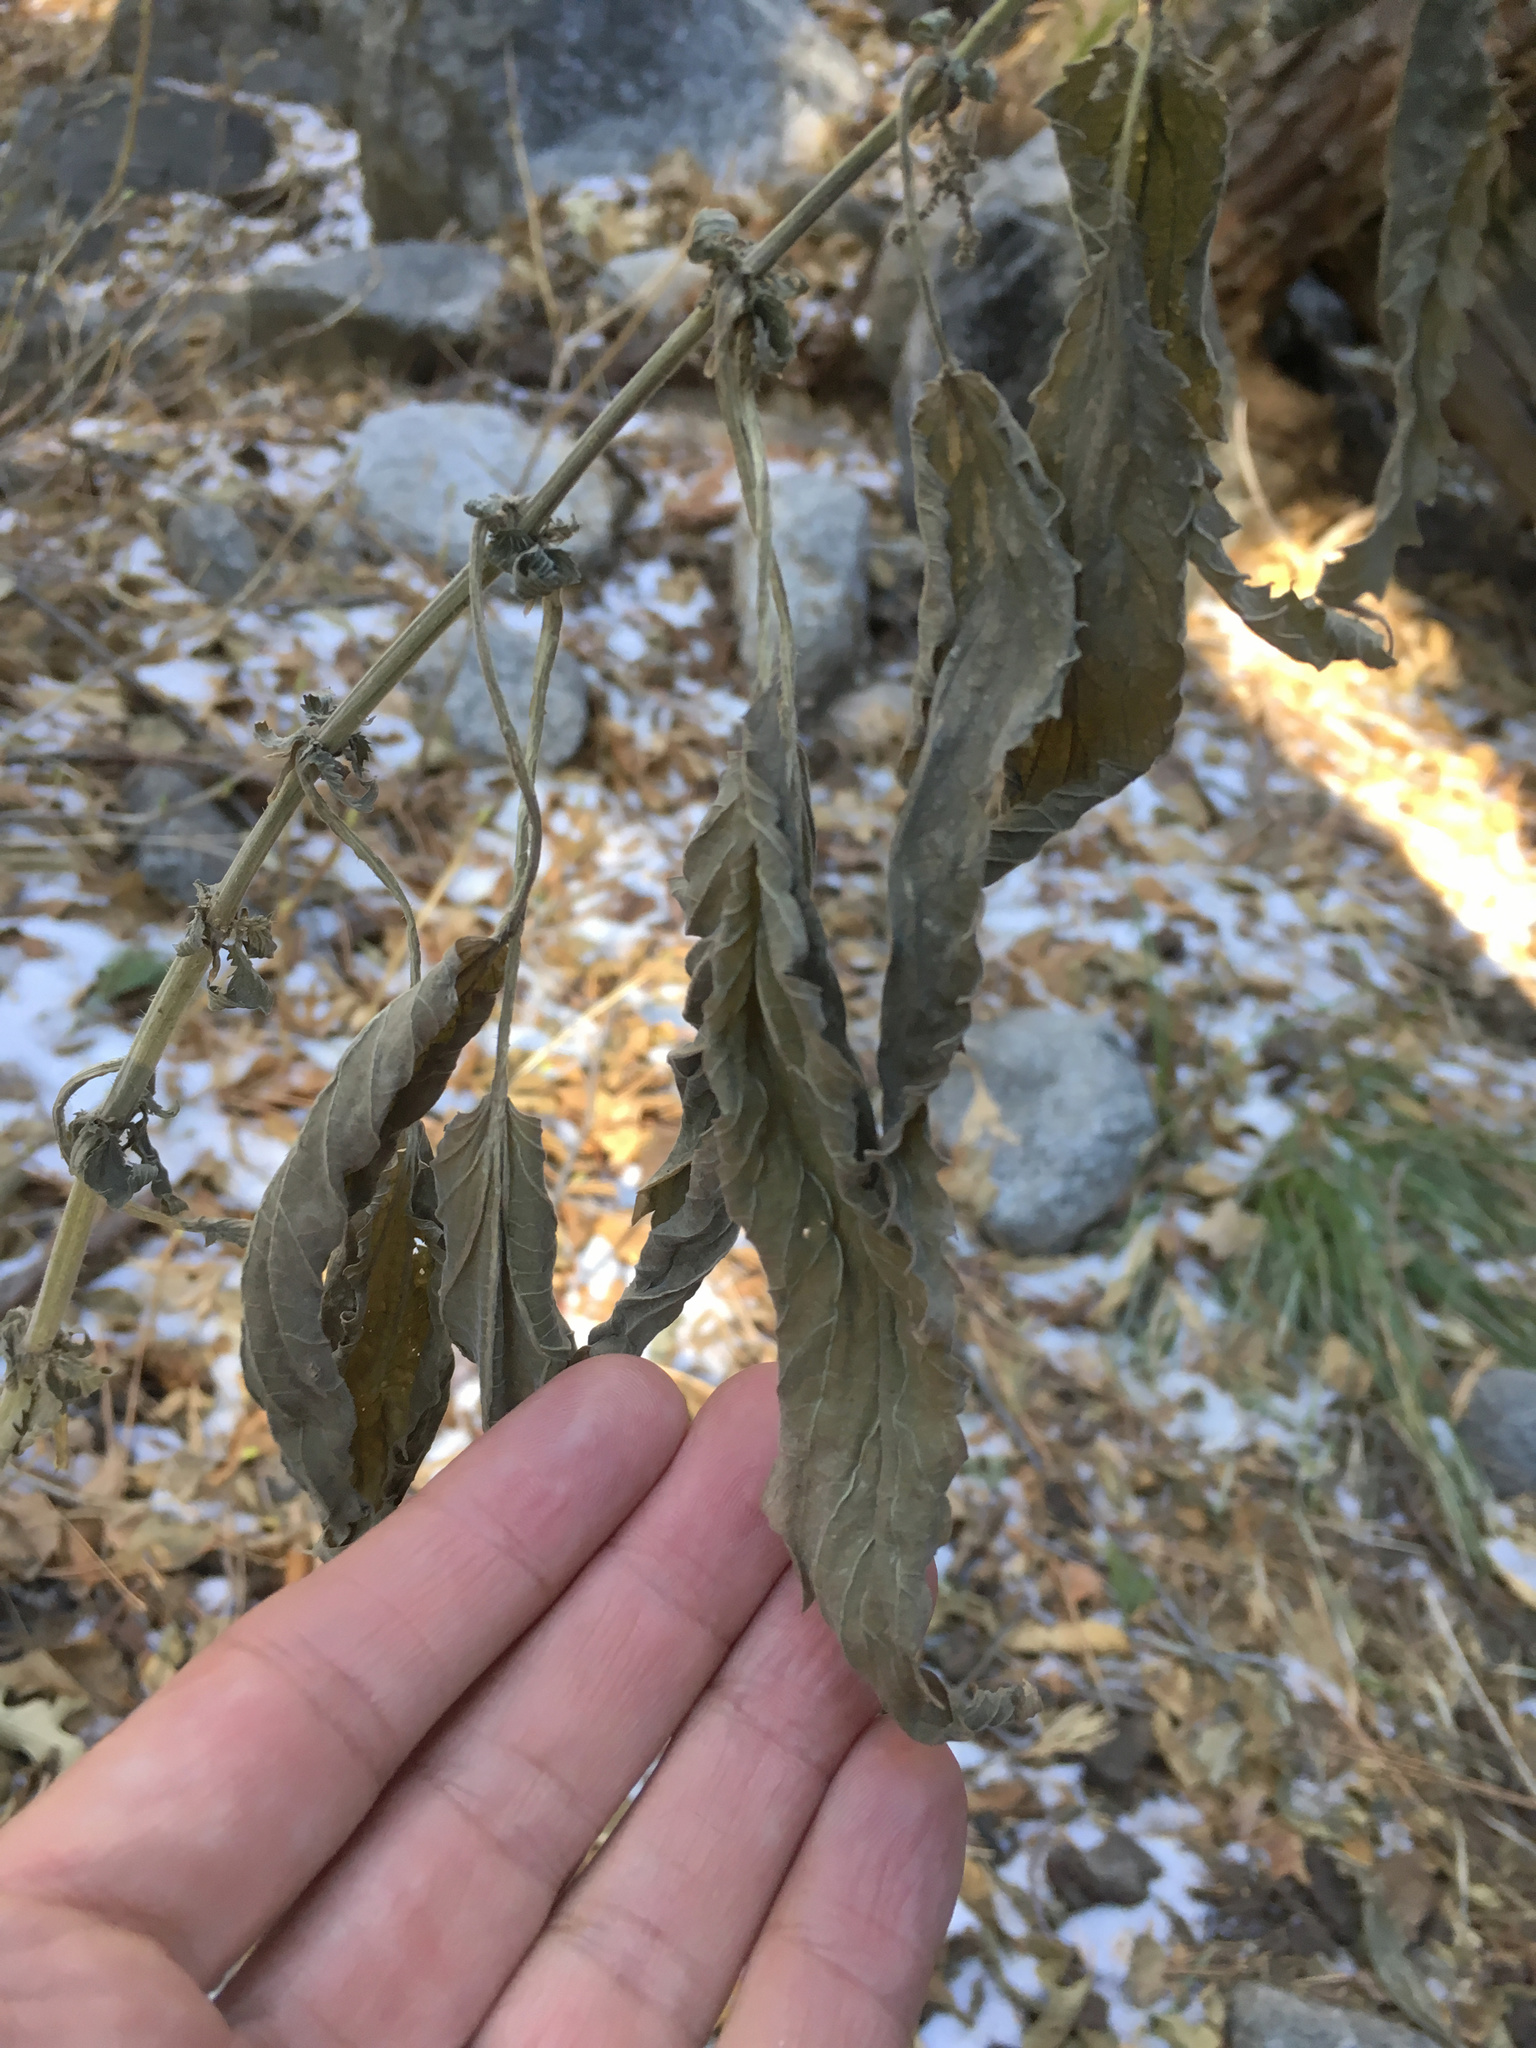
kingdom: Plantae
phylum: Tracheophyta
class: Magnoliopsida
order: Rosales
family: Urticaceae
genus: Urtica
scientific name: Urtica dioica
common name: Common nettle
